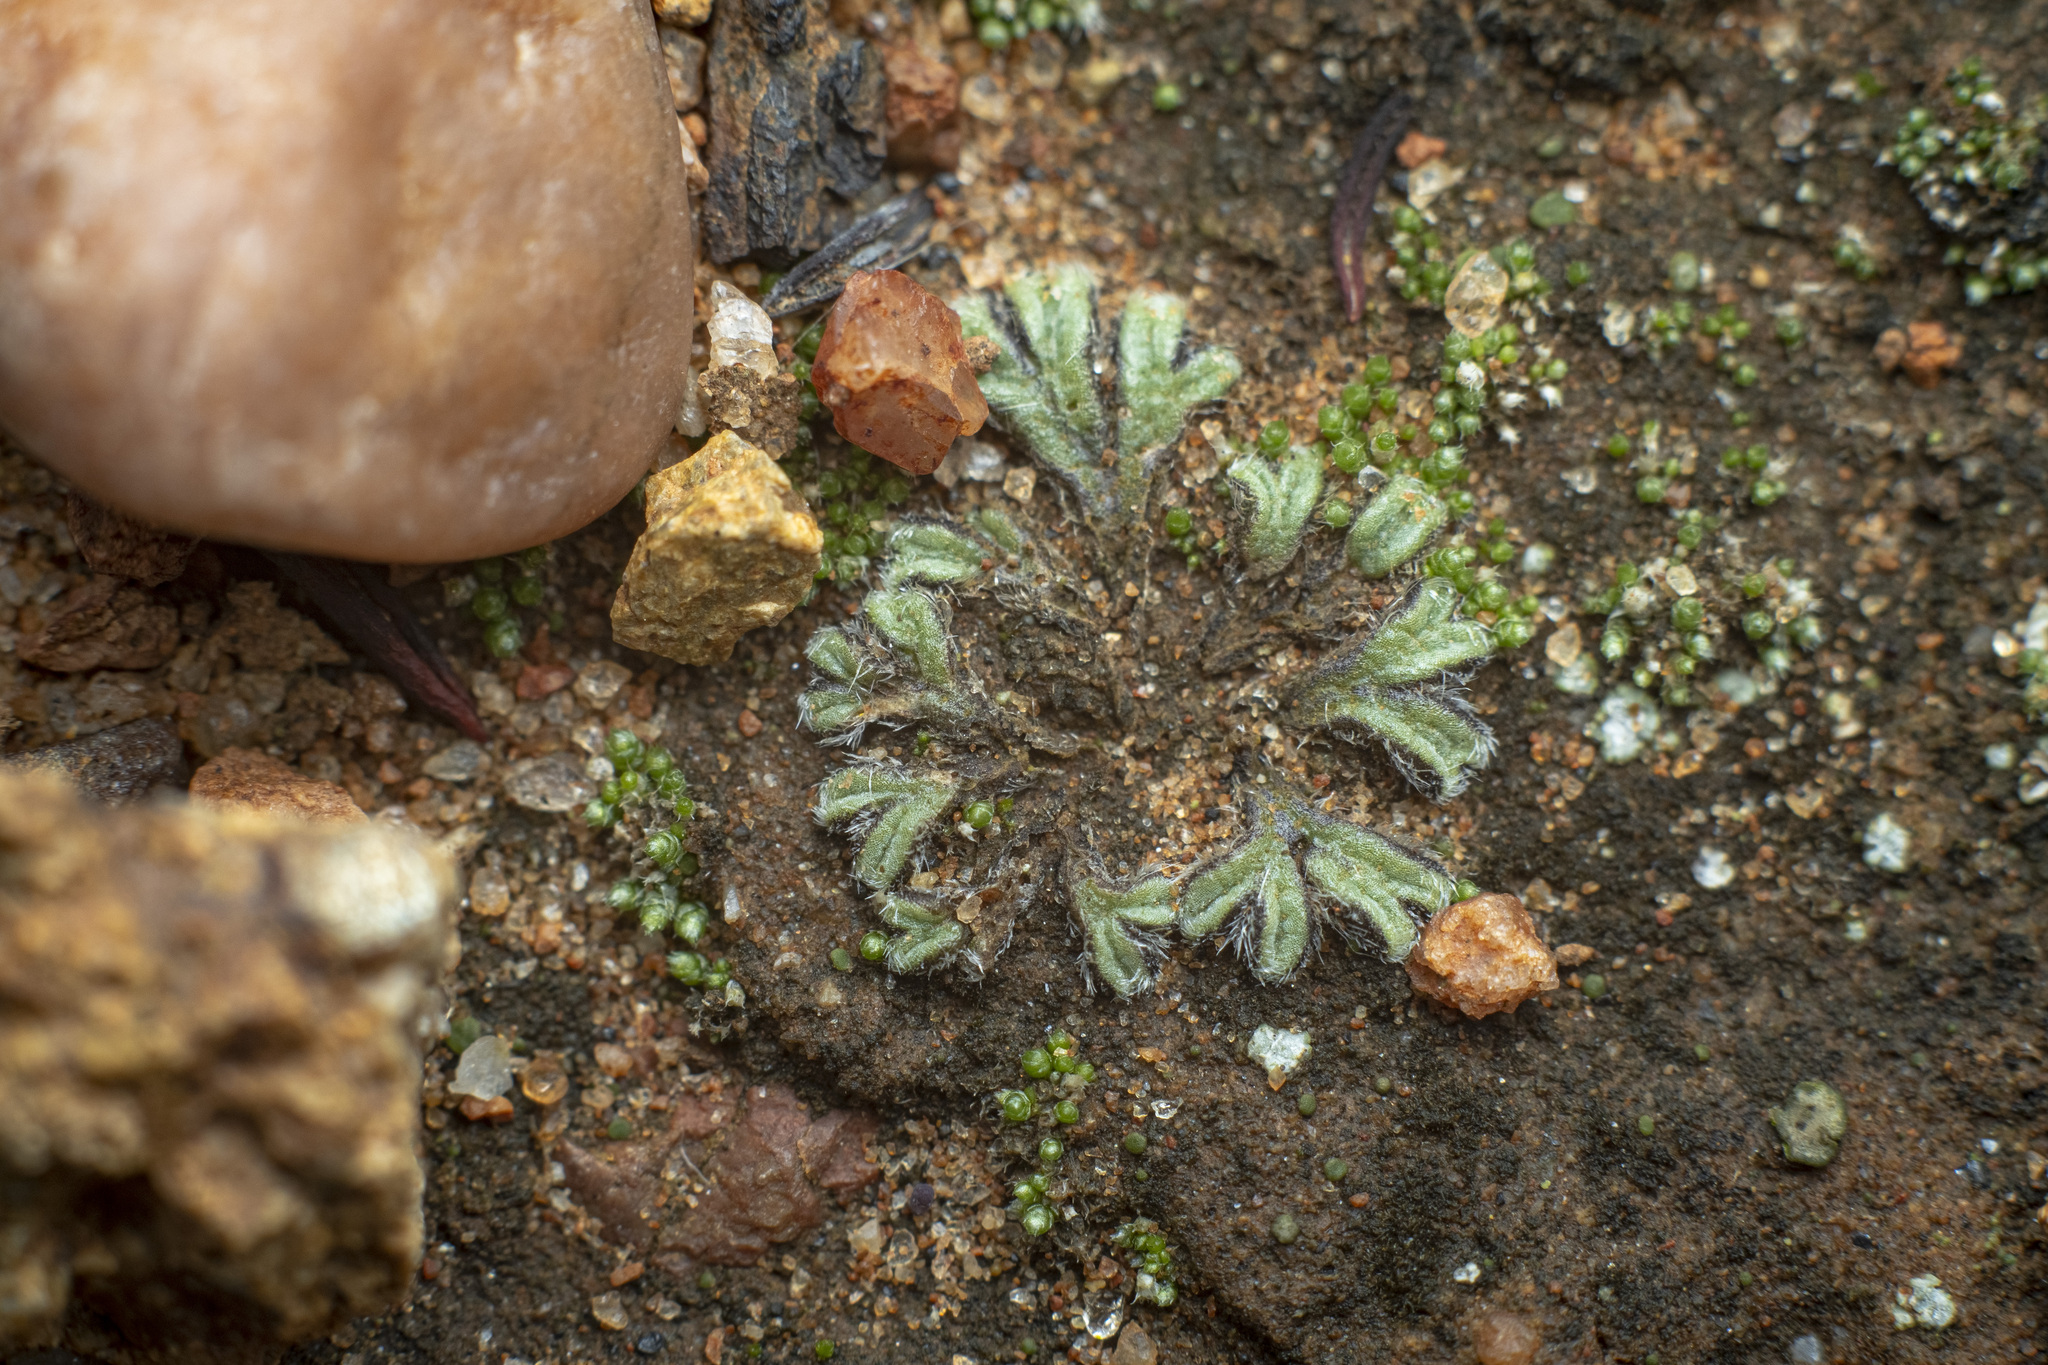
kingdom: Plantae
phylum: Marchantiophyta
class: Marchantiopsida
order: Marchantiales
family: Ricciaceae
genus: Riccia
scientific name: Riccia trichocarpa
